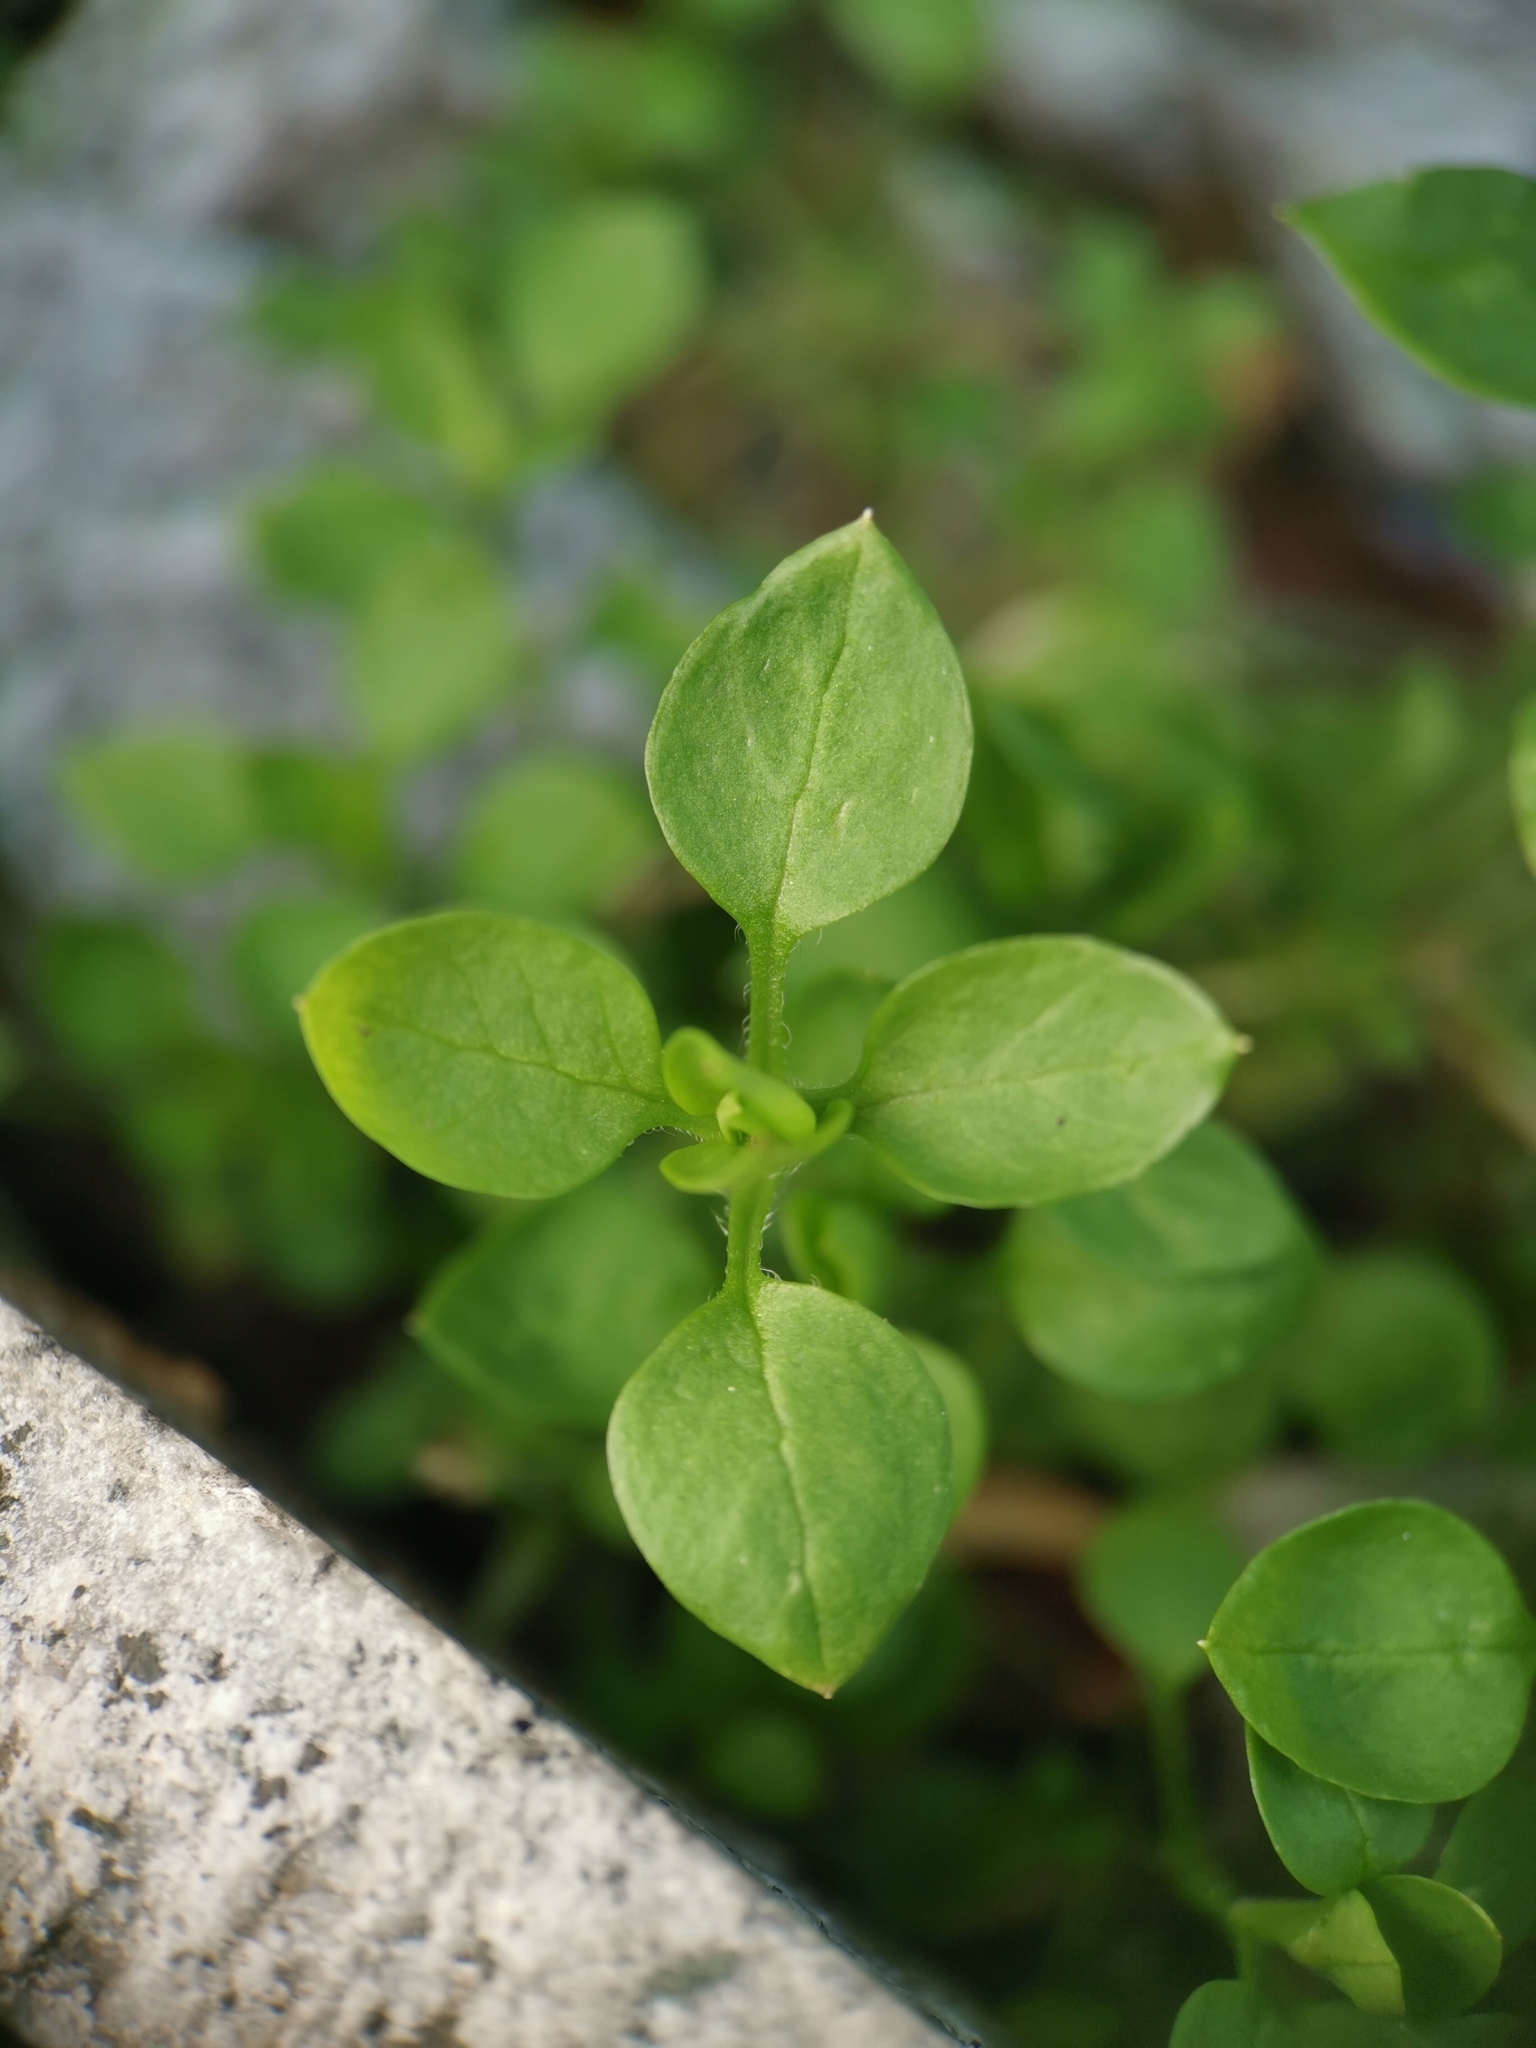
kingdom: Plantae
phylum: Tracheophyta
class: Magnoliopsida
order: Caryophyllales
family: Caryophyllaceae
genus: Stellaria
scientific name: Stellaria media
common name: Common chickweed
